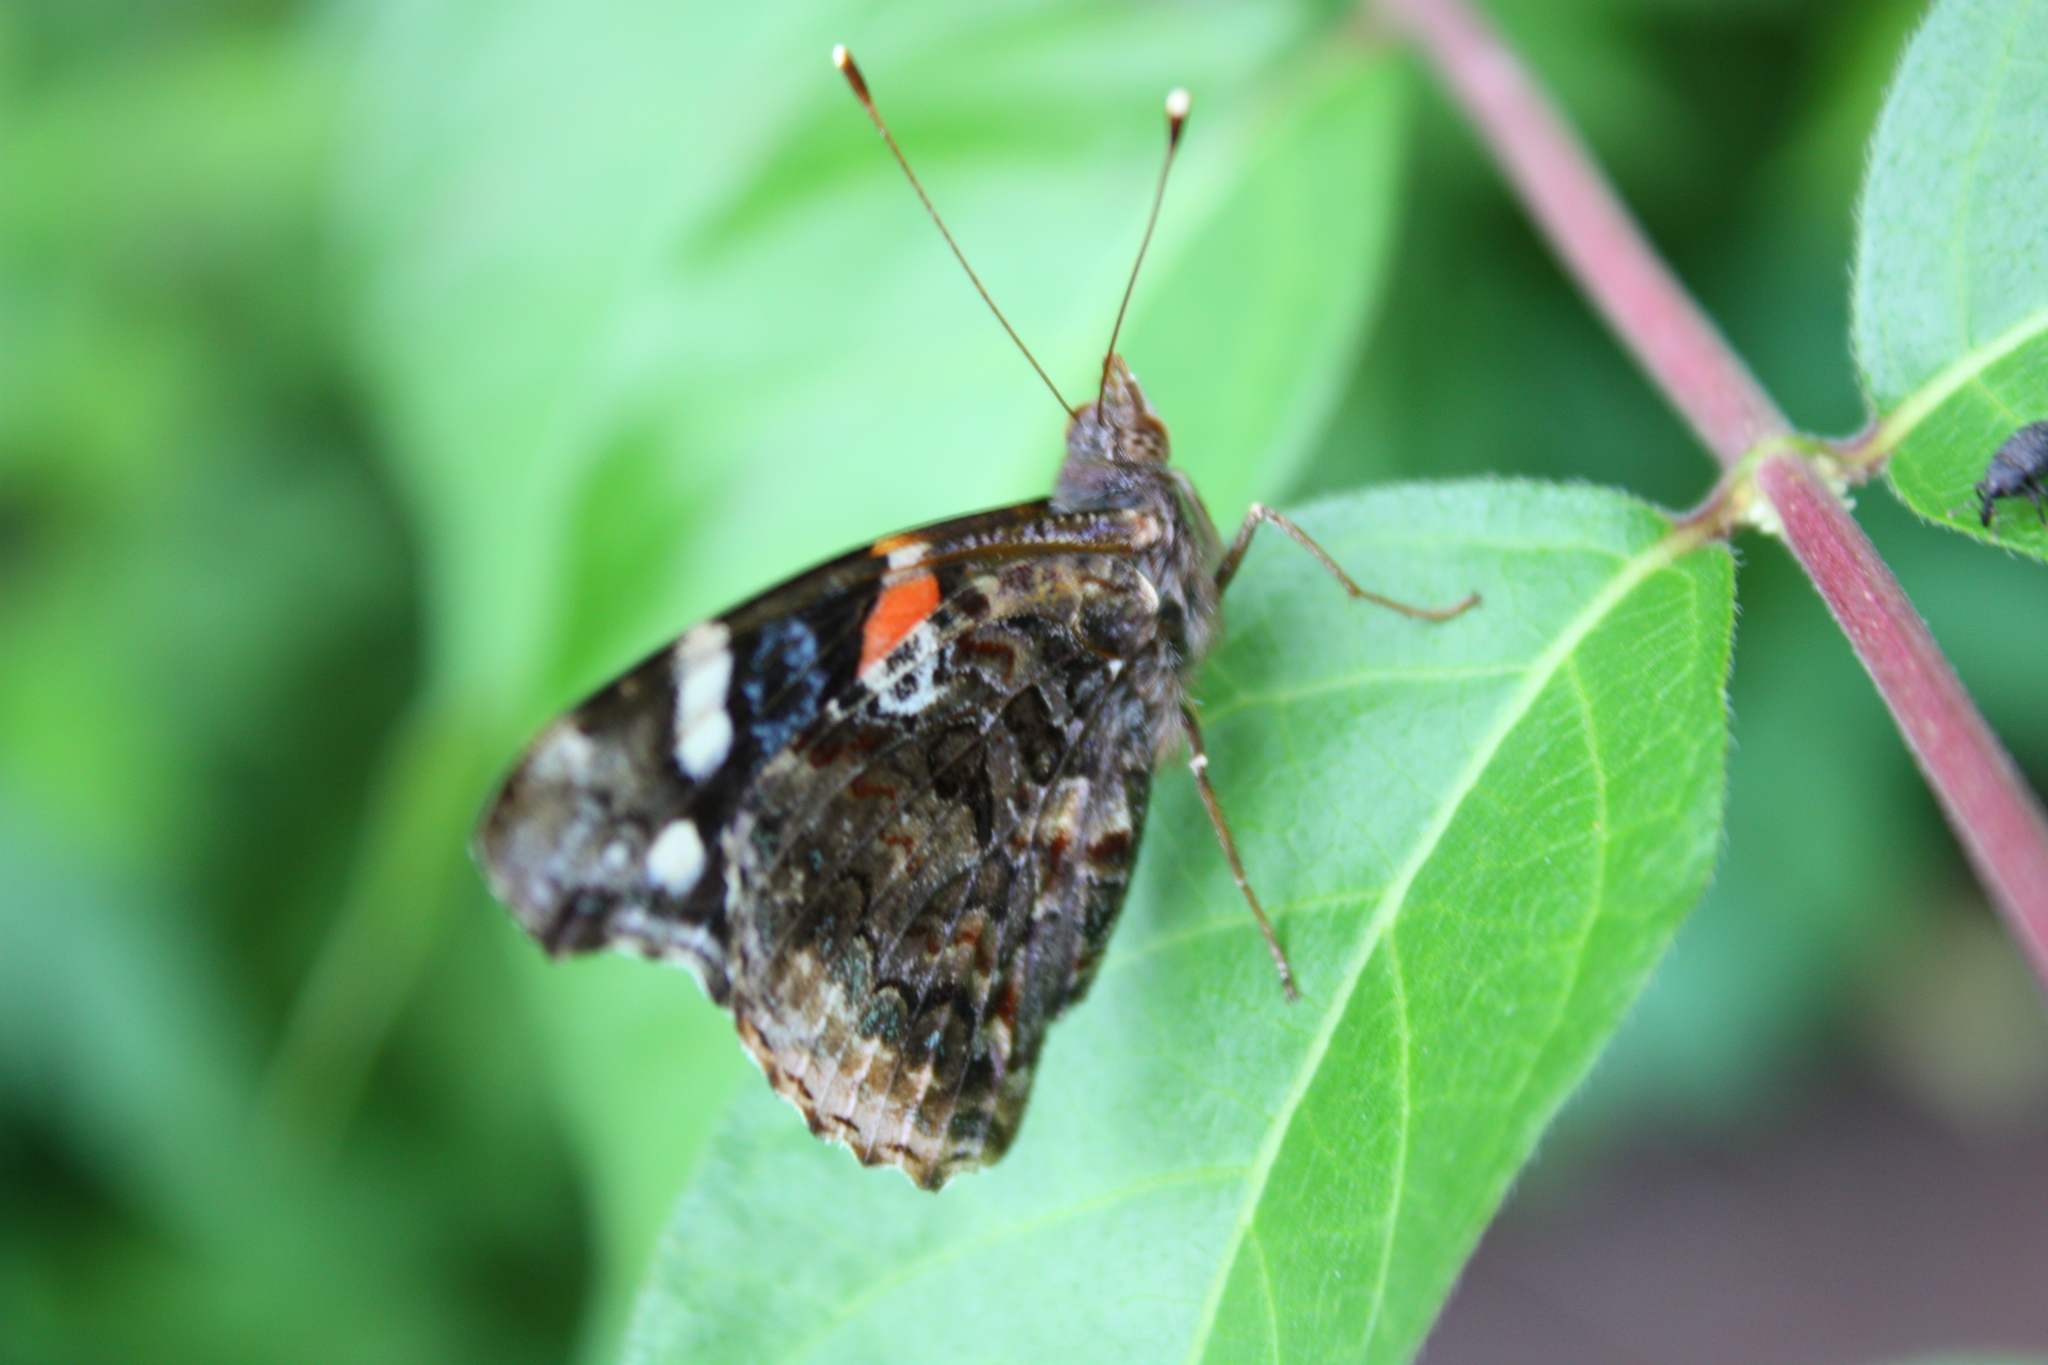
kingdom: Animalia
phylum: Arthropoda
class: Insecta
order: Lepidoptera
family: Nymphalidae
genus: Vanessa
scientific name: Vanessa atalanta
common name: Red admiral
